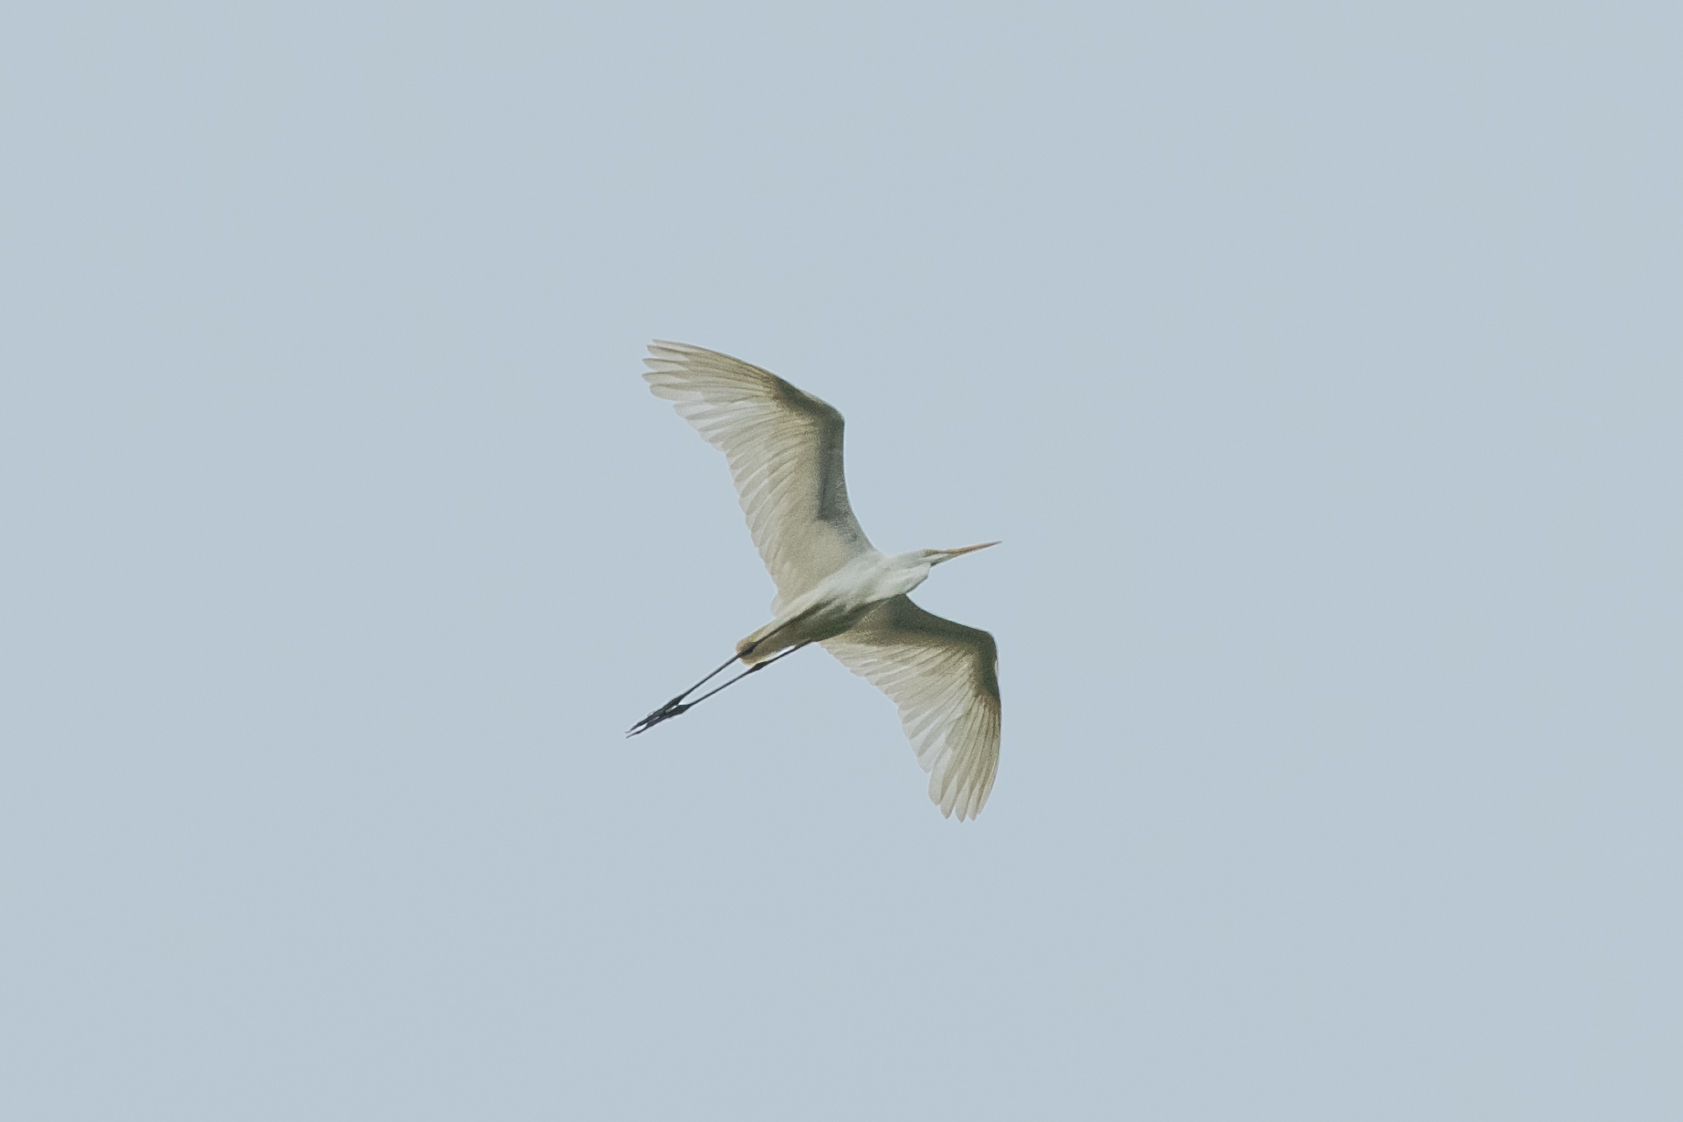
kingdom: Animalia
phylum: Chordata
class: Aves
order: Pelecaniformes
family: Ardeidae
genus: Ardea
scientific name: Ardea alba
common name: Great egret
